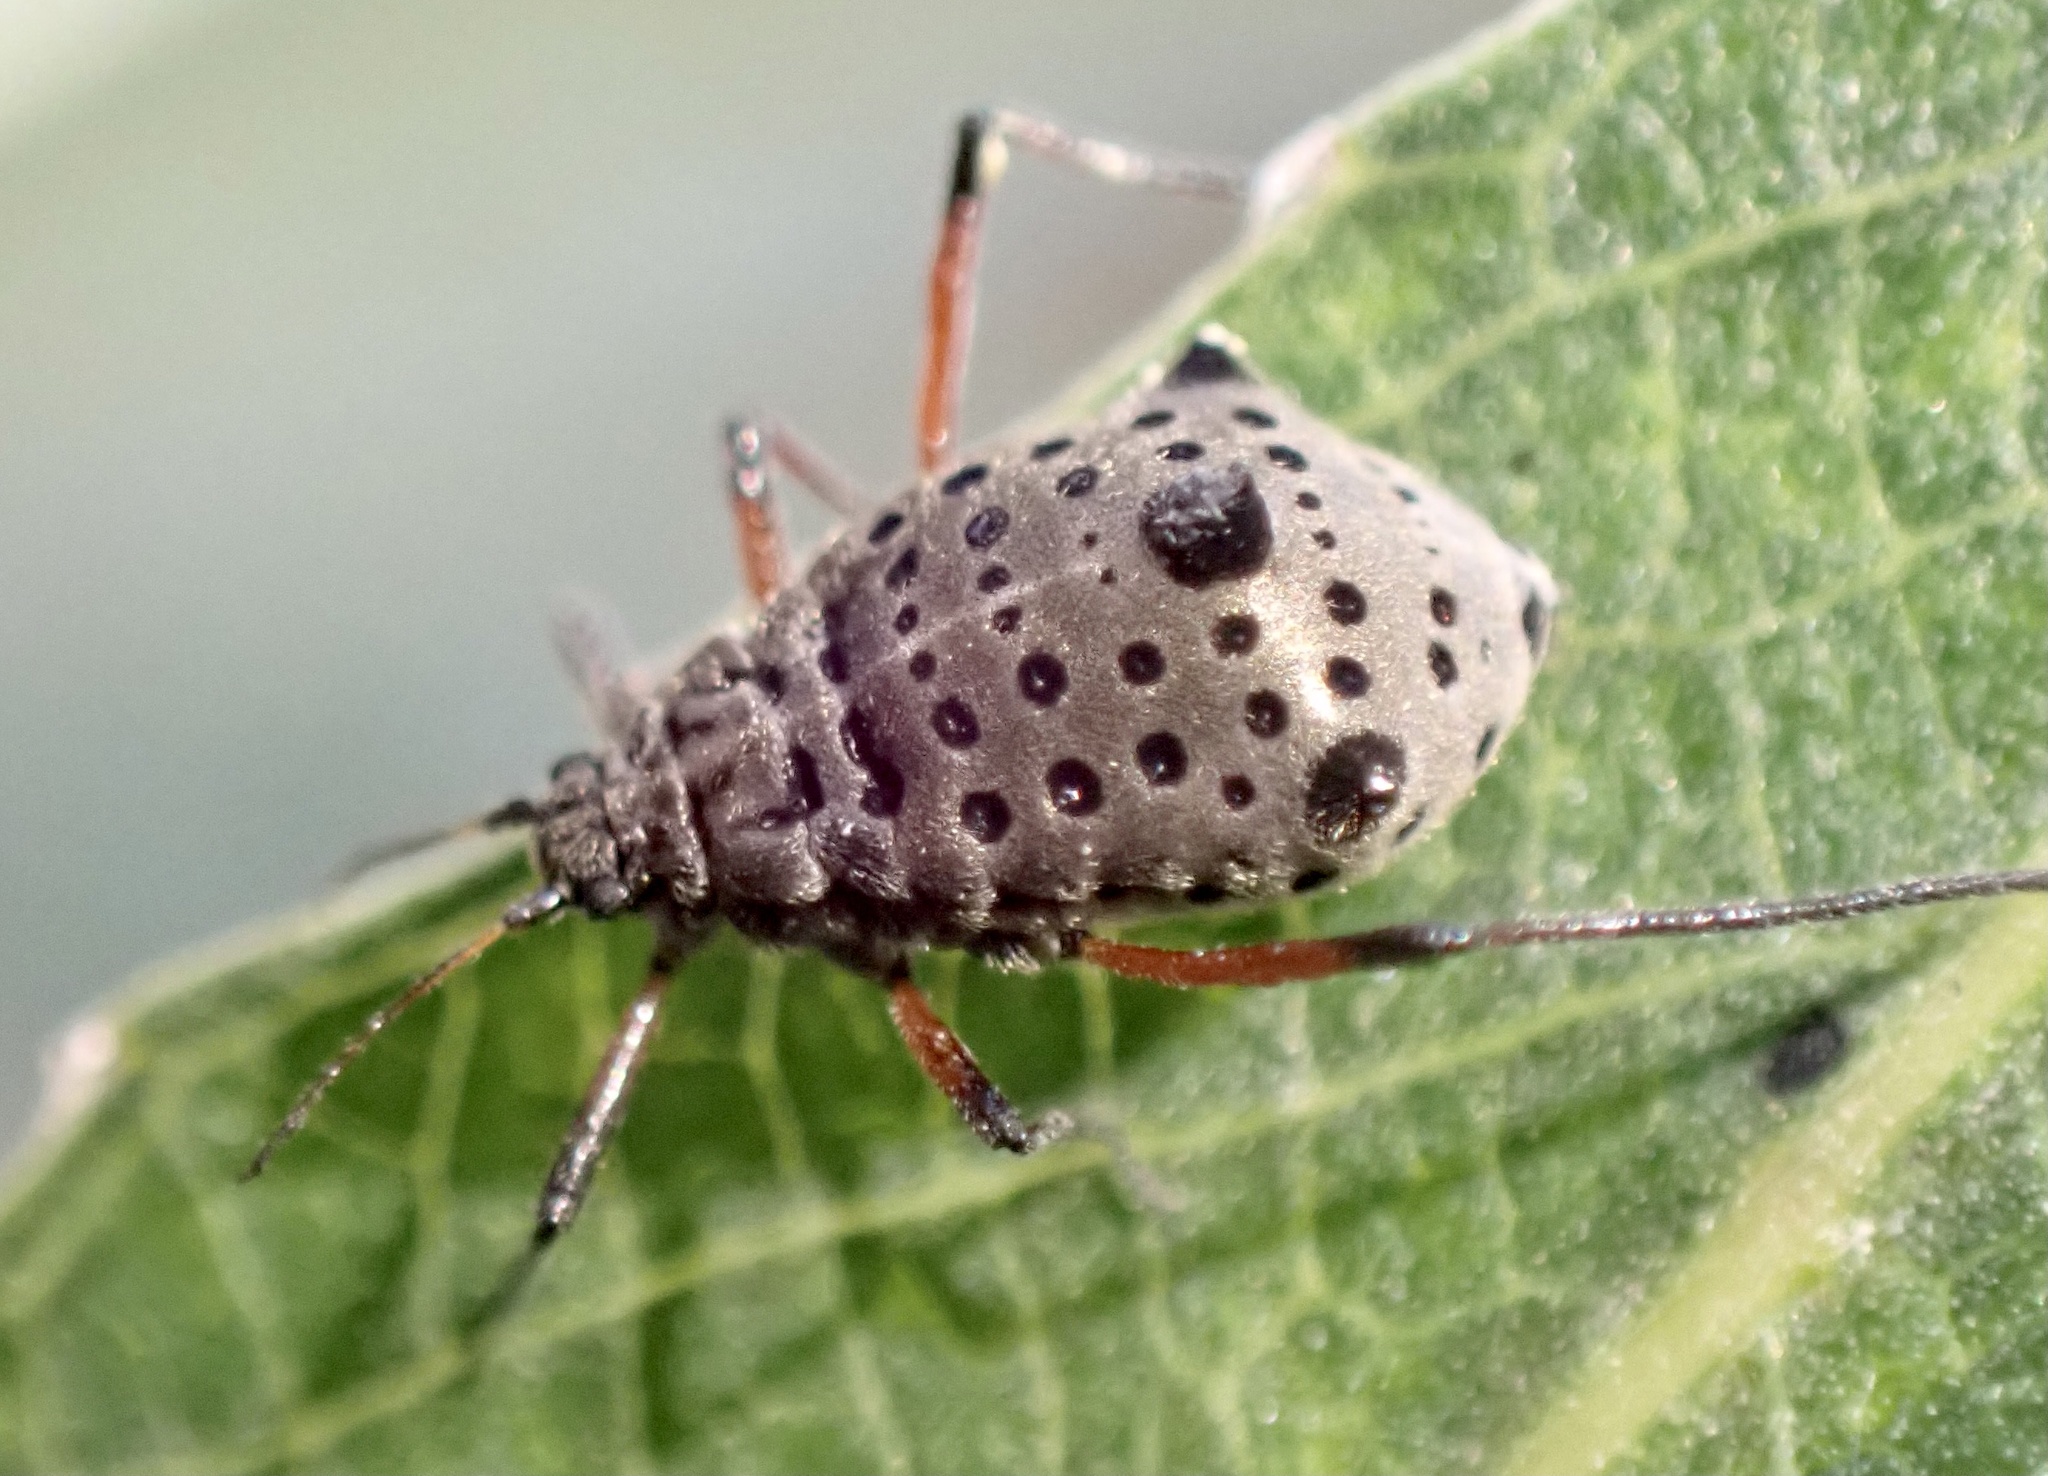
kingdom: Animalia
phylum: Arthropoda
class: Insecta
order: Hemiptera
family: Aphididae
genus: Tuberolachnus
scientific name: Tuberolachnus salignus
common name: Giant willow aphid
